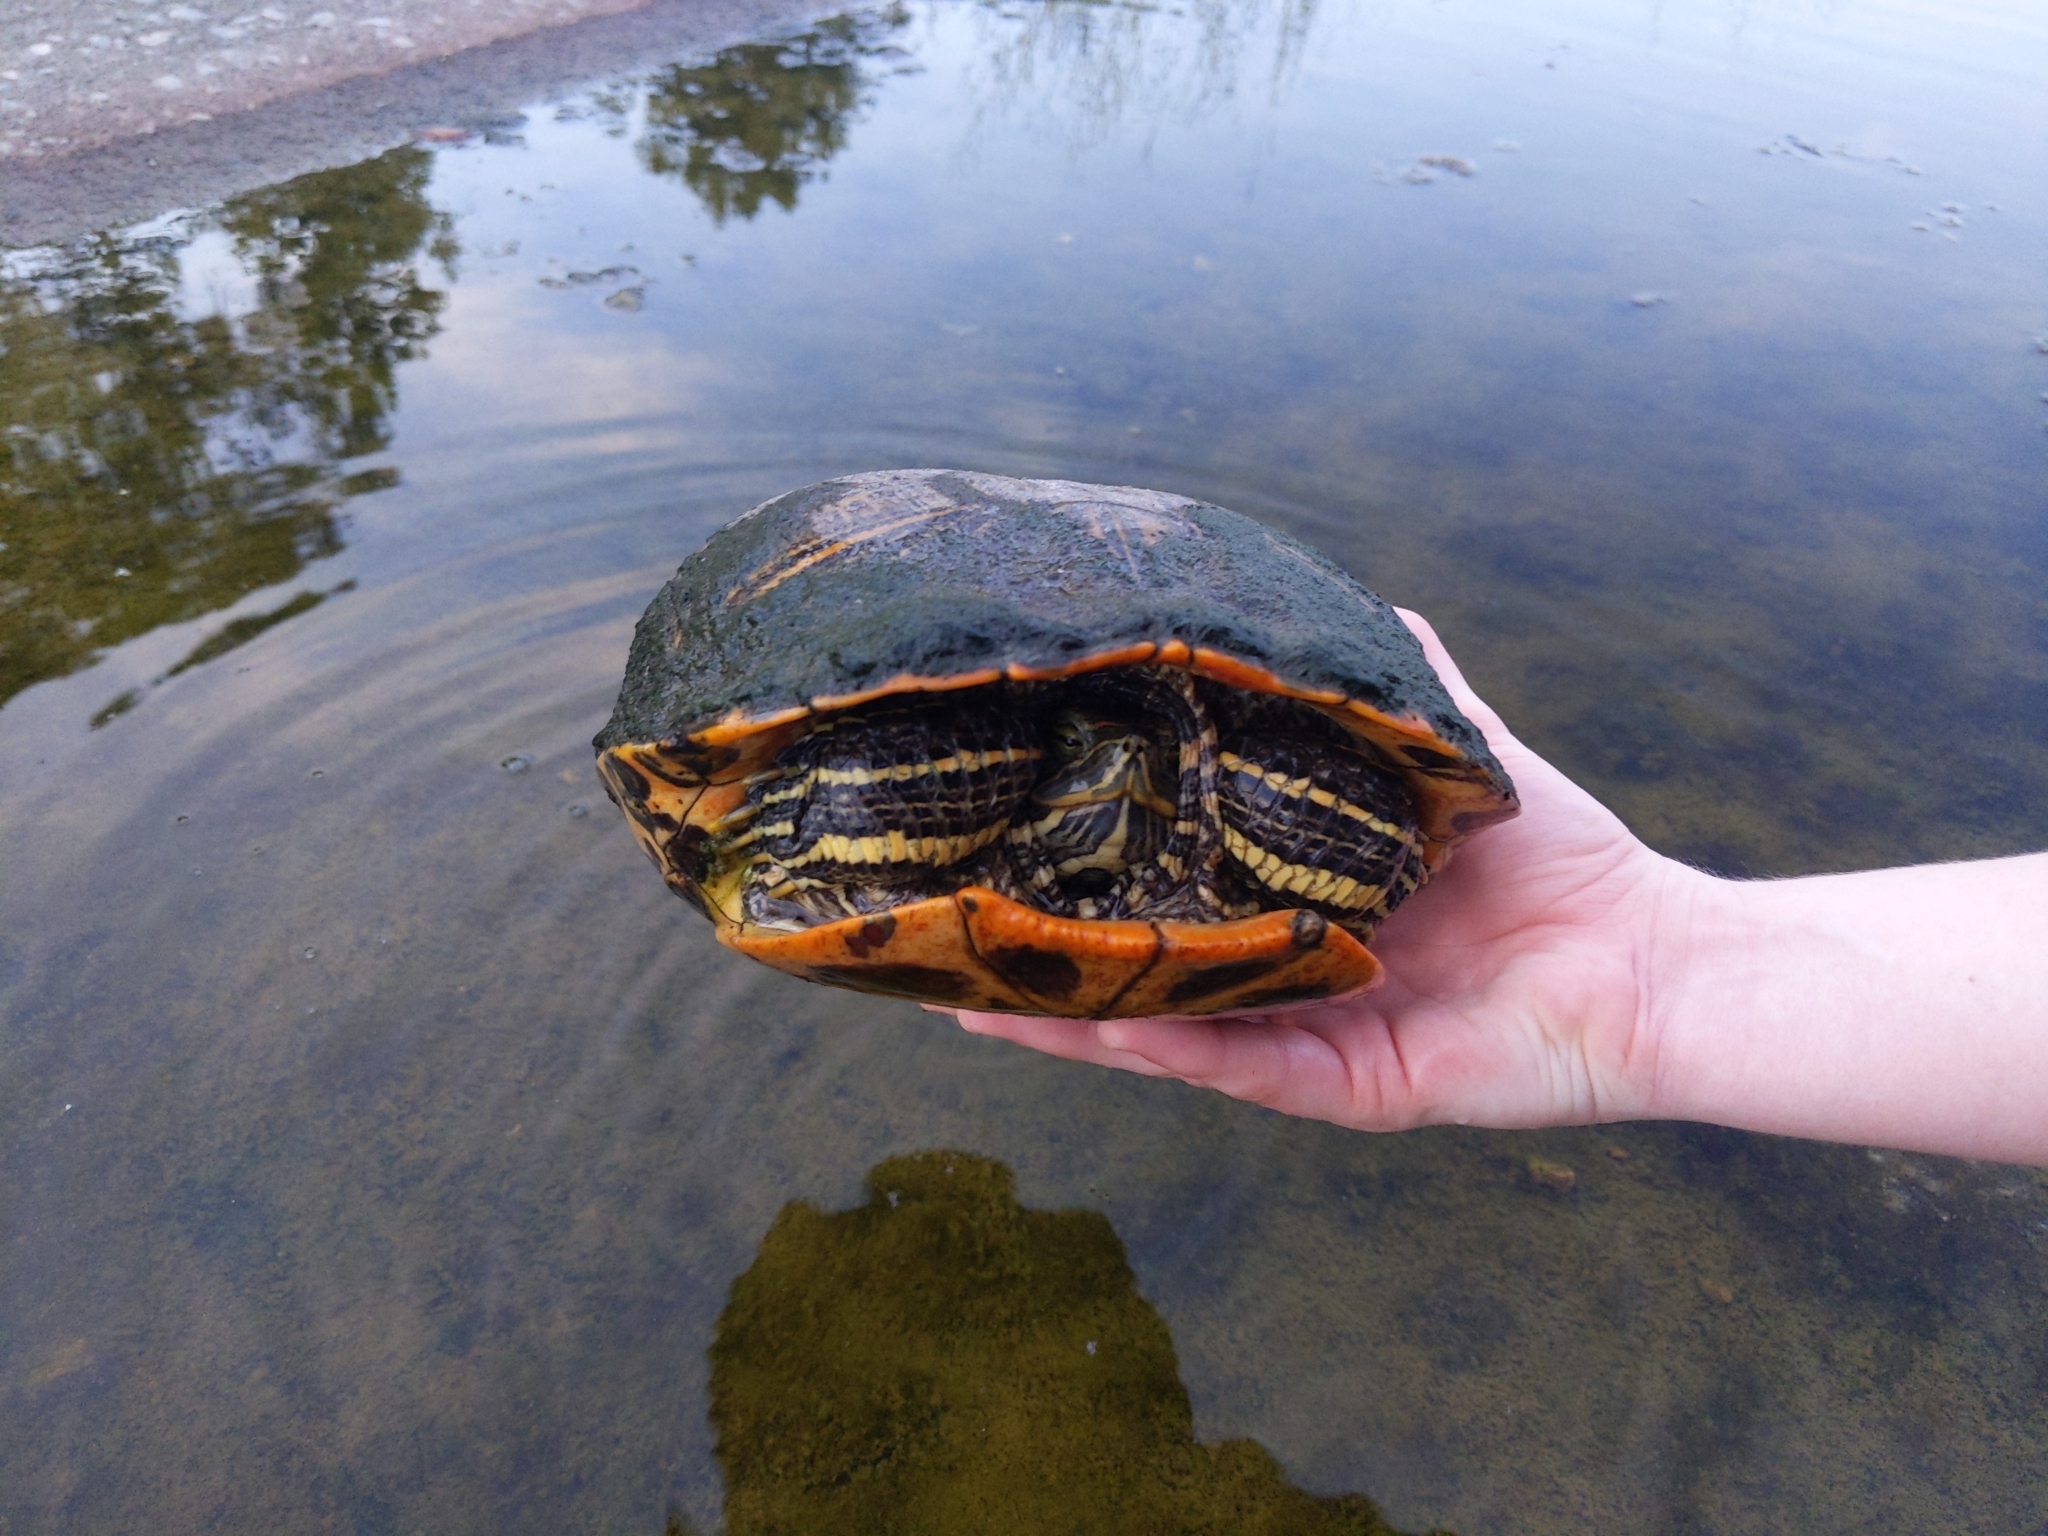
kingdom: Animalia
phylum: Chordata
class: Testudines
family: Emydidae
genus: Trachemys
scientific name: Trachemys scripta
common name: Slider
